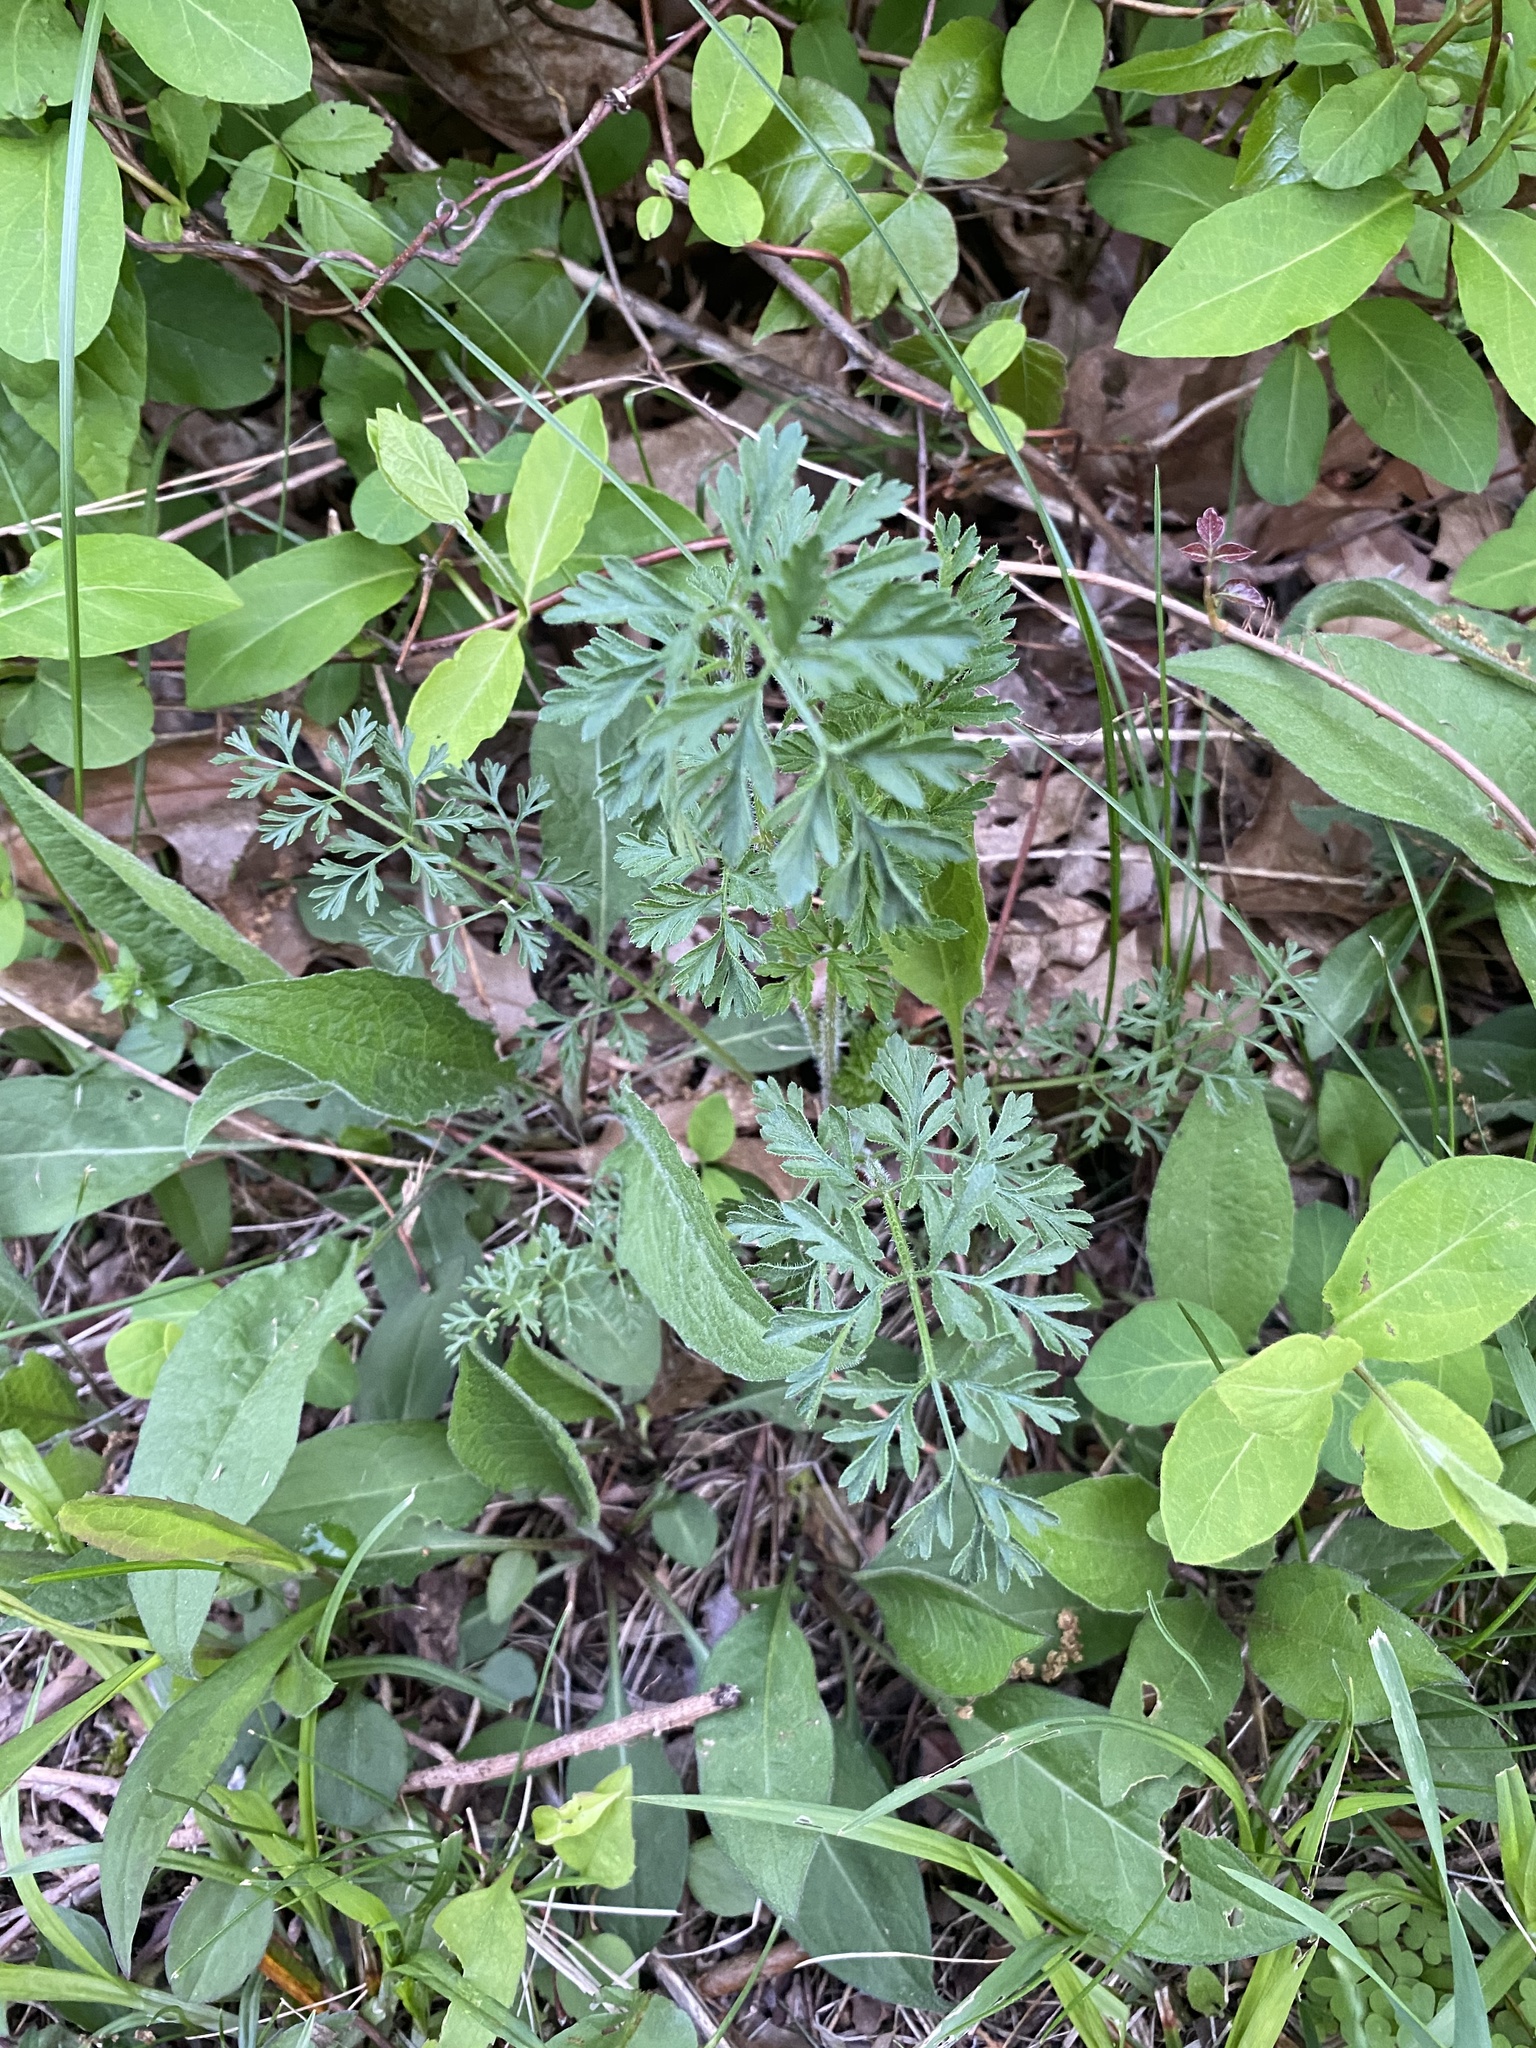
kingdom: Plantae
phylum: Tracheophyta
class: Magnoliopsida
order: Apiales
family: Apiaceae
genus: Daucus
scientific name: Daucus carota
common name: Wild carrot
